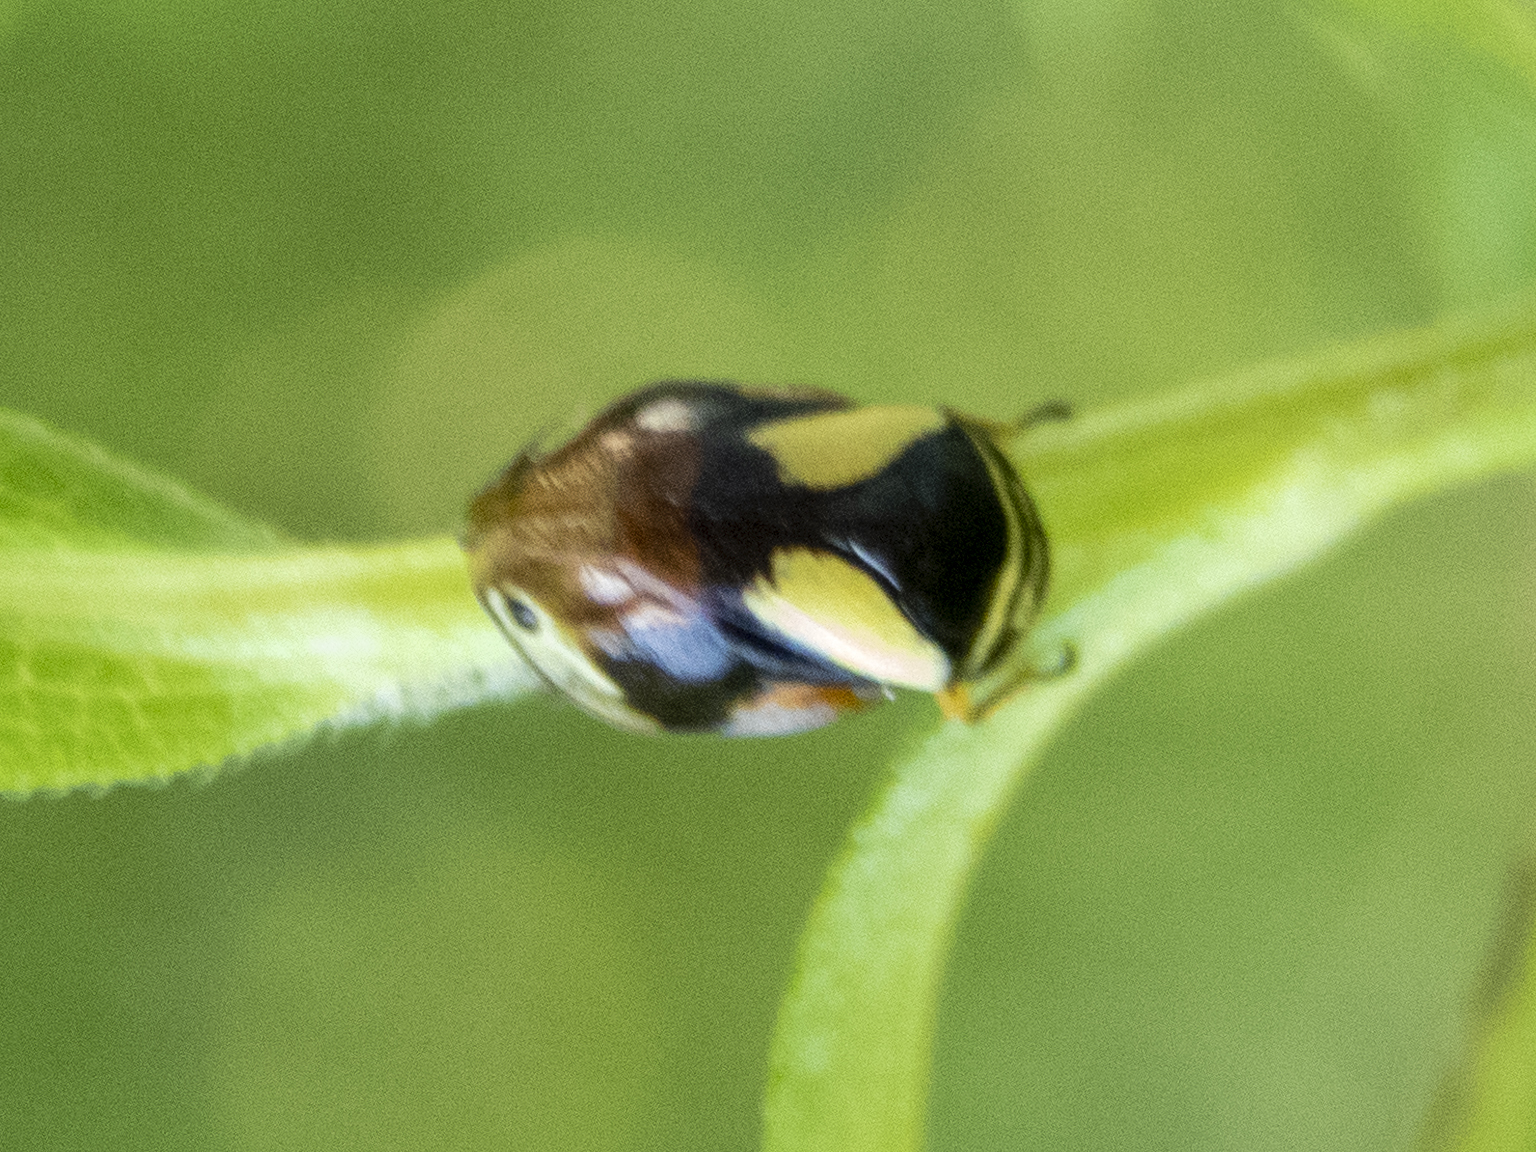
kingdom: Animalia
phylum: Arthropoda
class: Insecta
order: Hemiptera
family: Clastopteridae
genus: Clastoptera
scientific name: Clastoptera proteus
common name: Dogwood spittlebug
